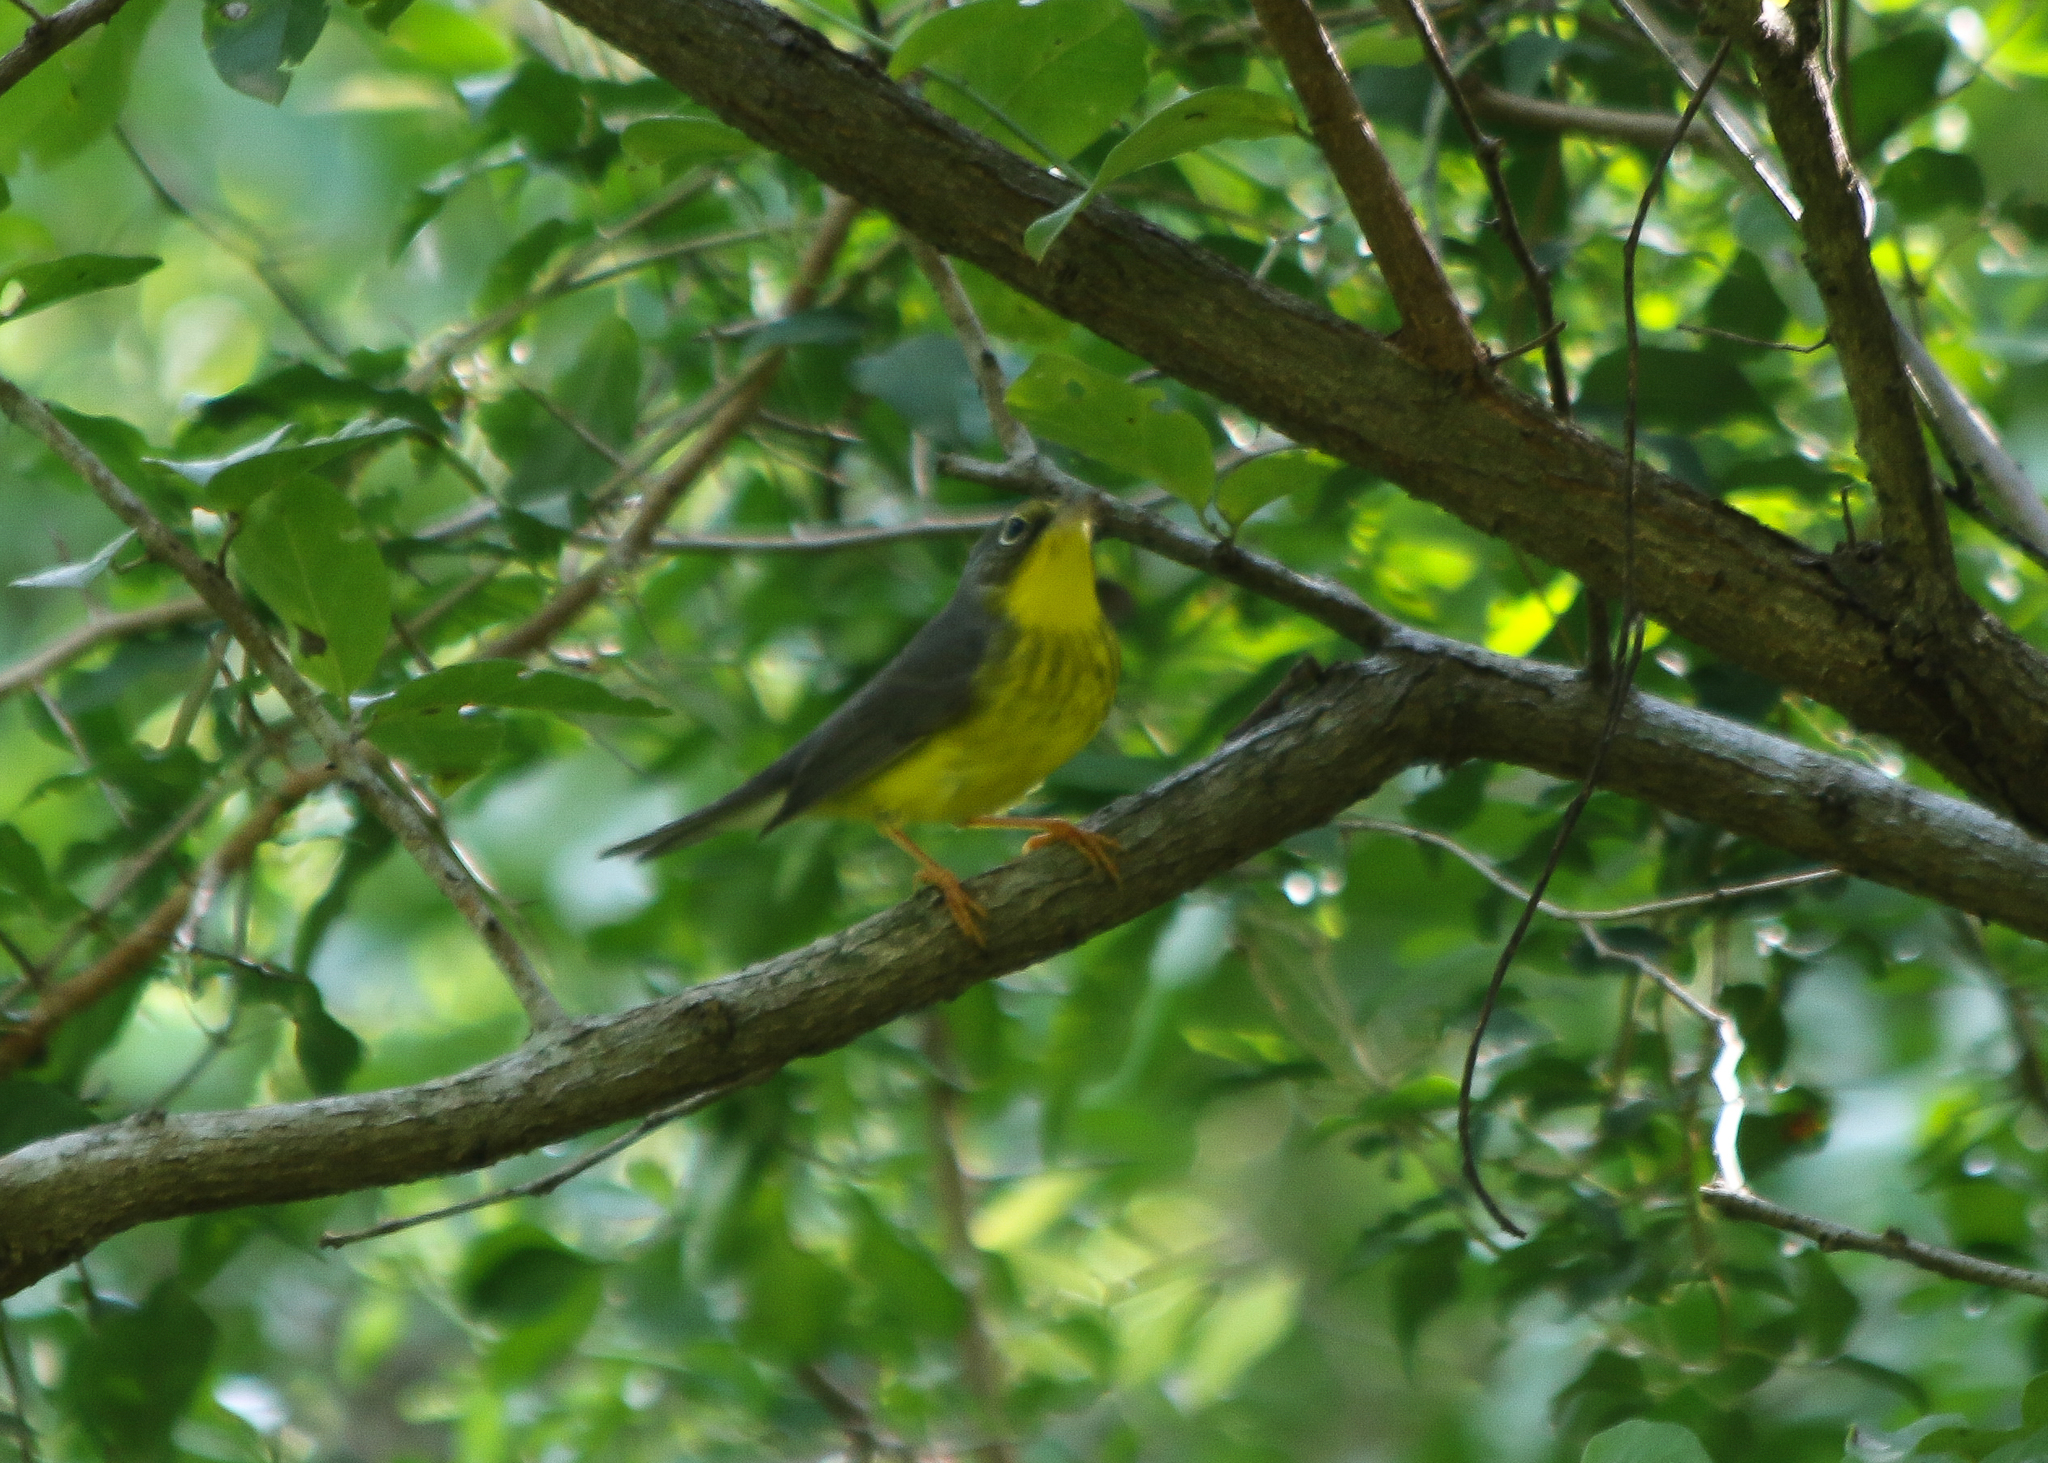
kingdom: Animalia
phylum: Chordata
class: Aves
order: Passeriformes
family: Parulidae
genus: Cardellina
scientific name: Cardellina canadensis
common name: Canada warbler
